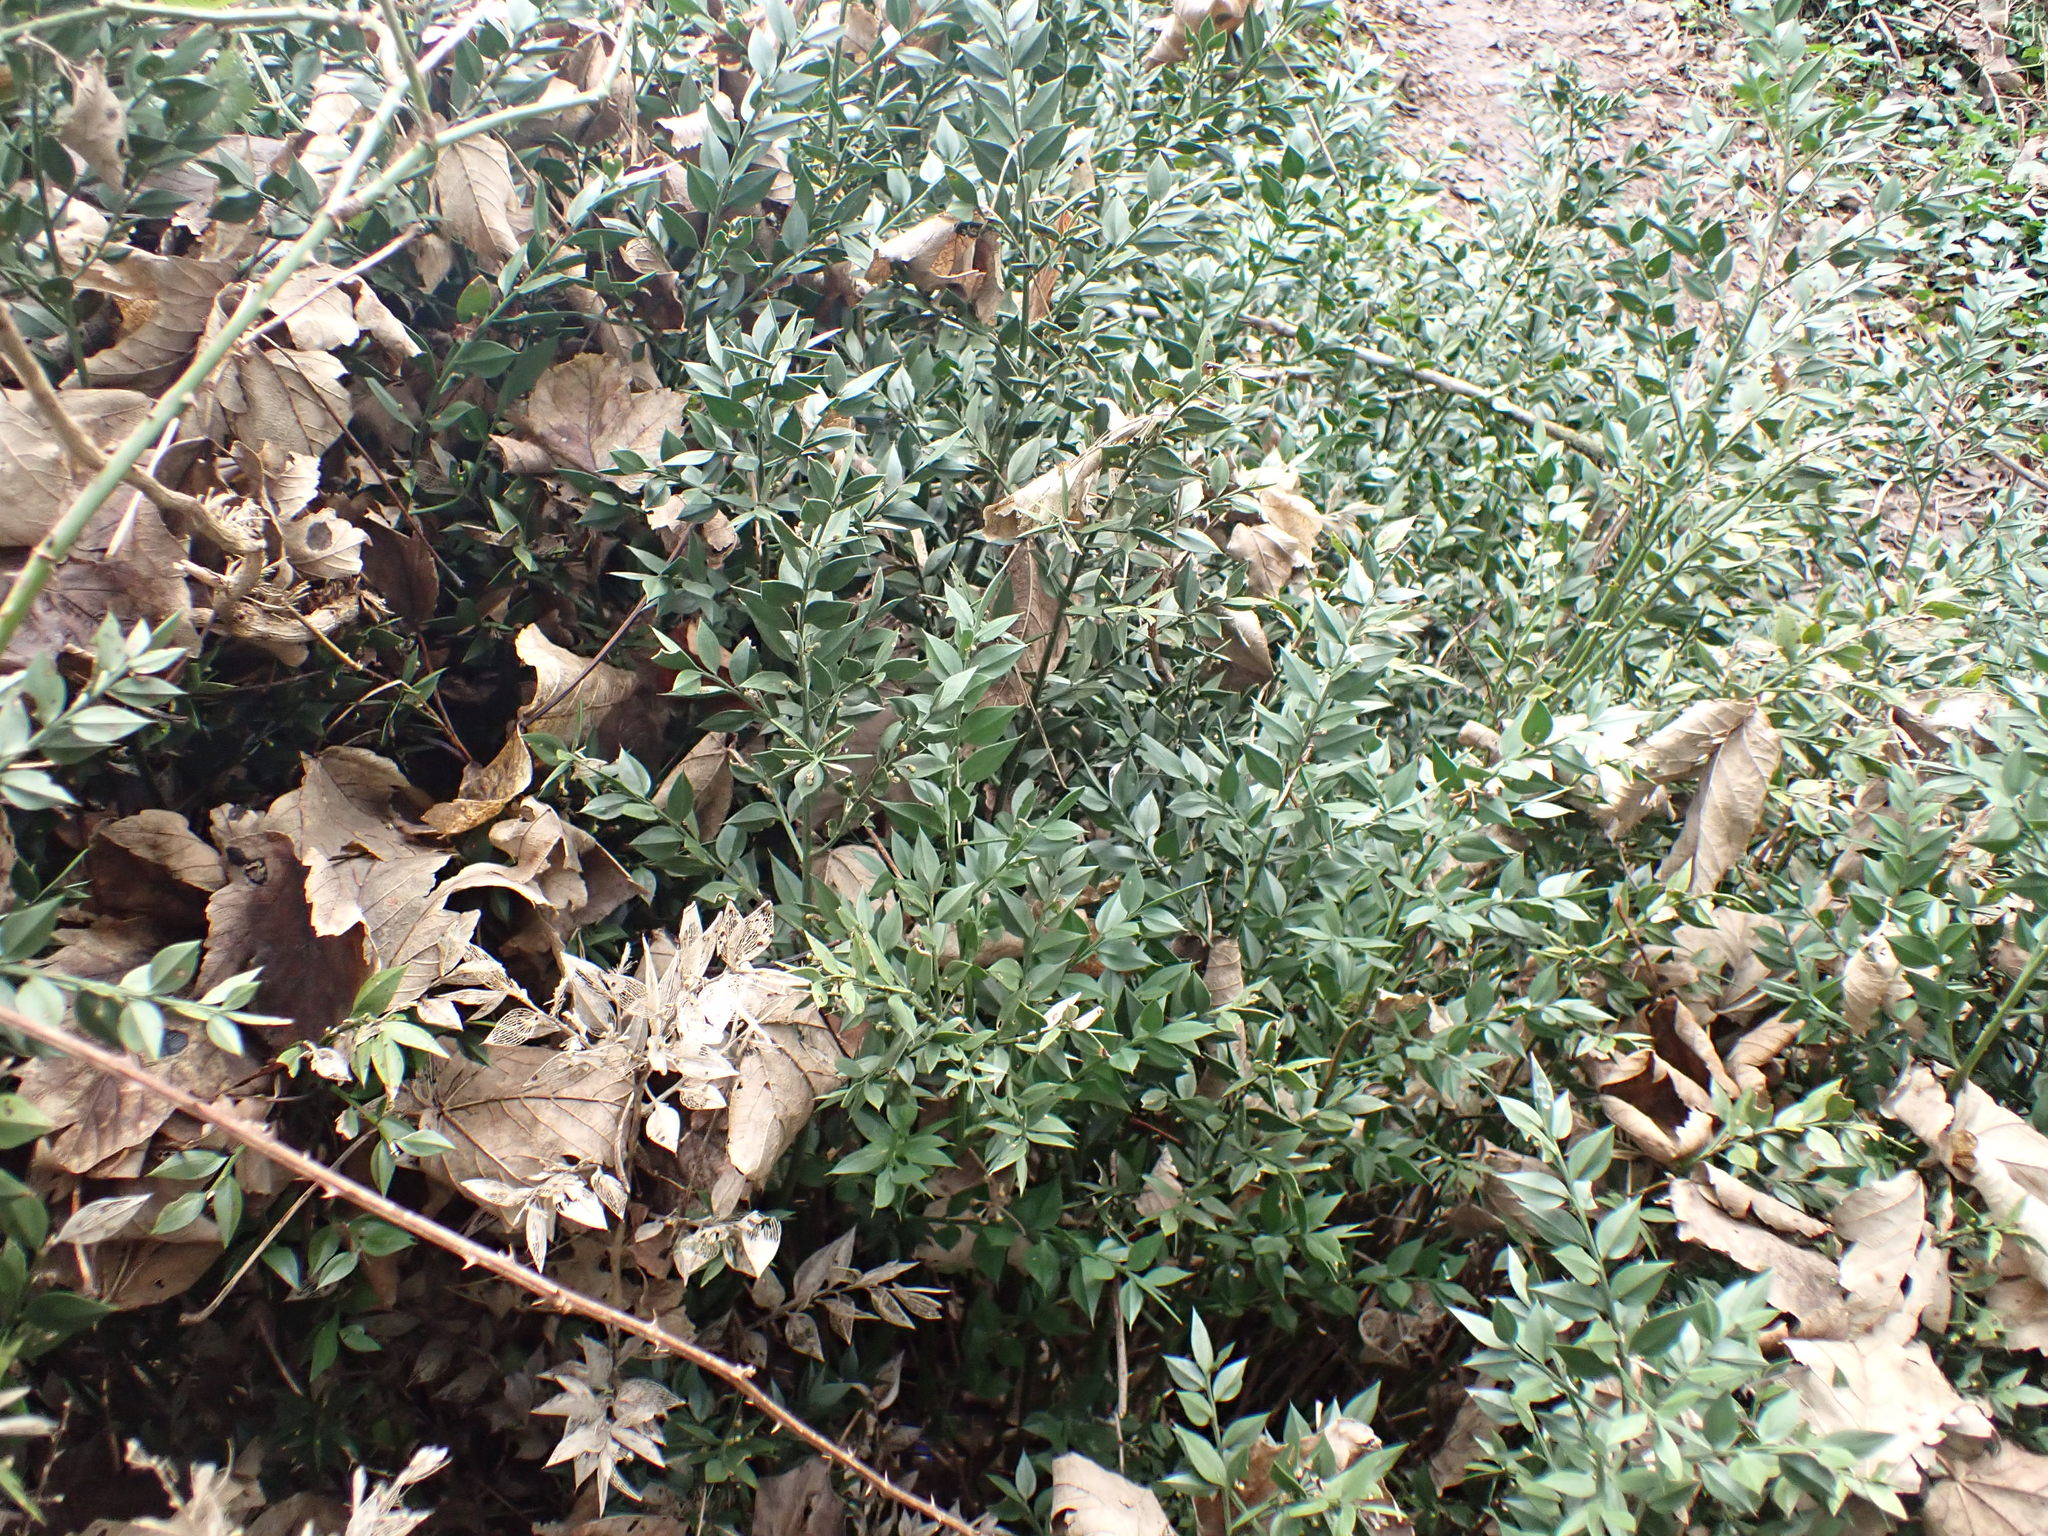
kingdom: Plantae
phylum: Tracheophyta
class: Liliopsida
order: Asparagales
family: Asparagaceae
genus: Ruscus
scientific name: Ruscus aculeatus
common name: Butcher's-broom
